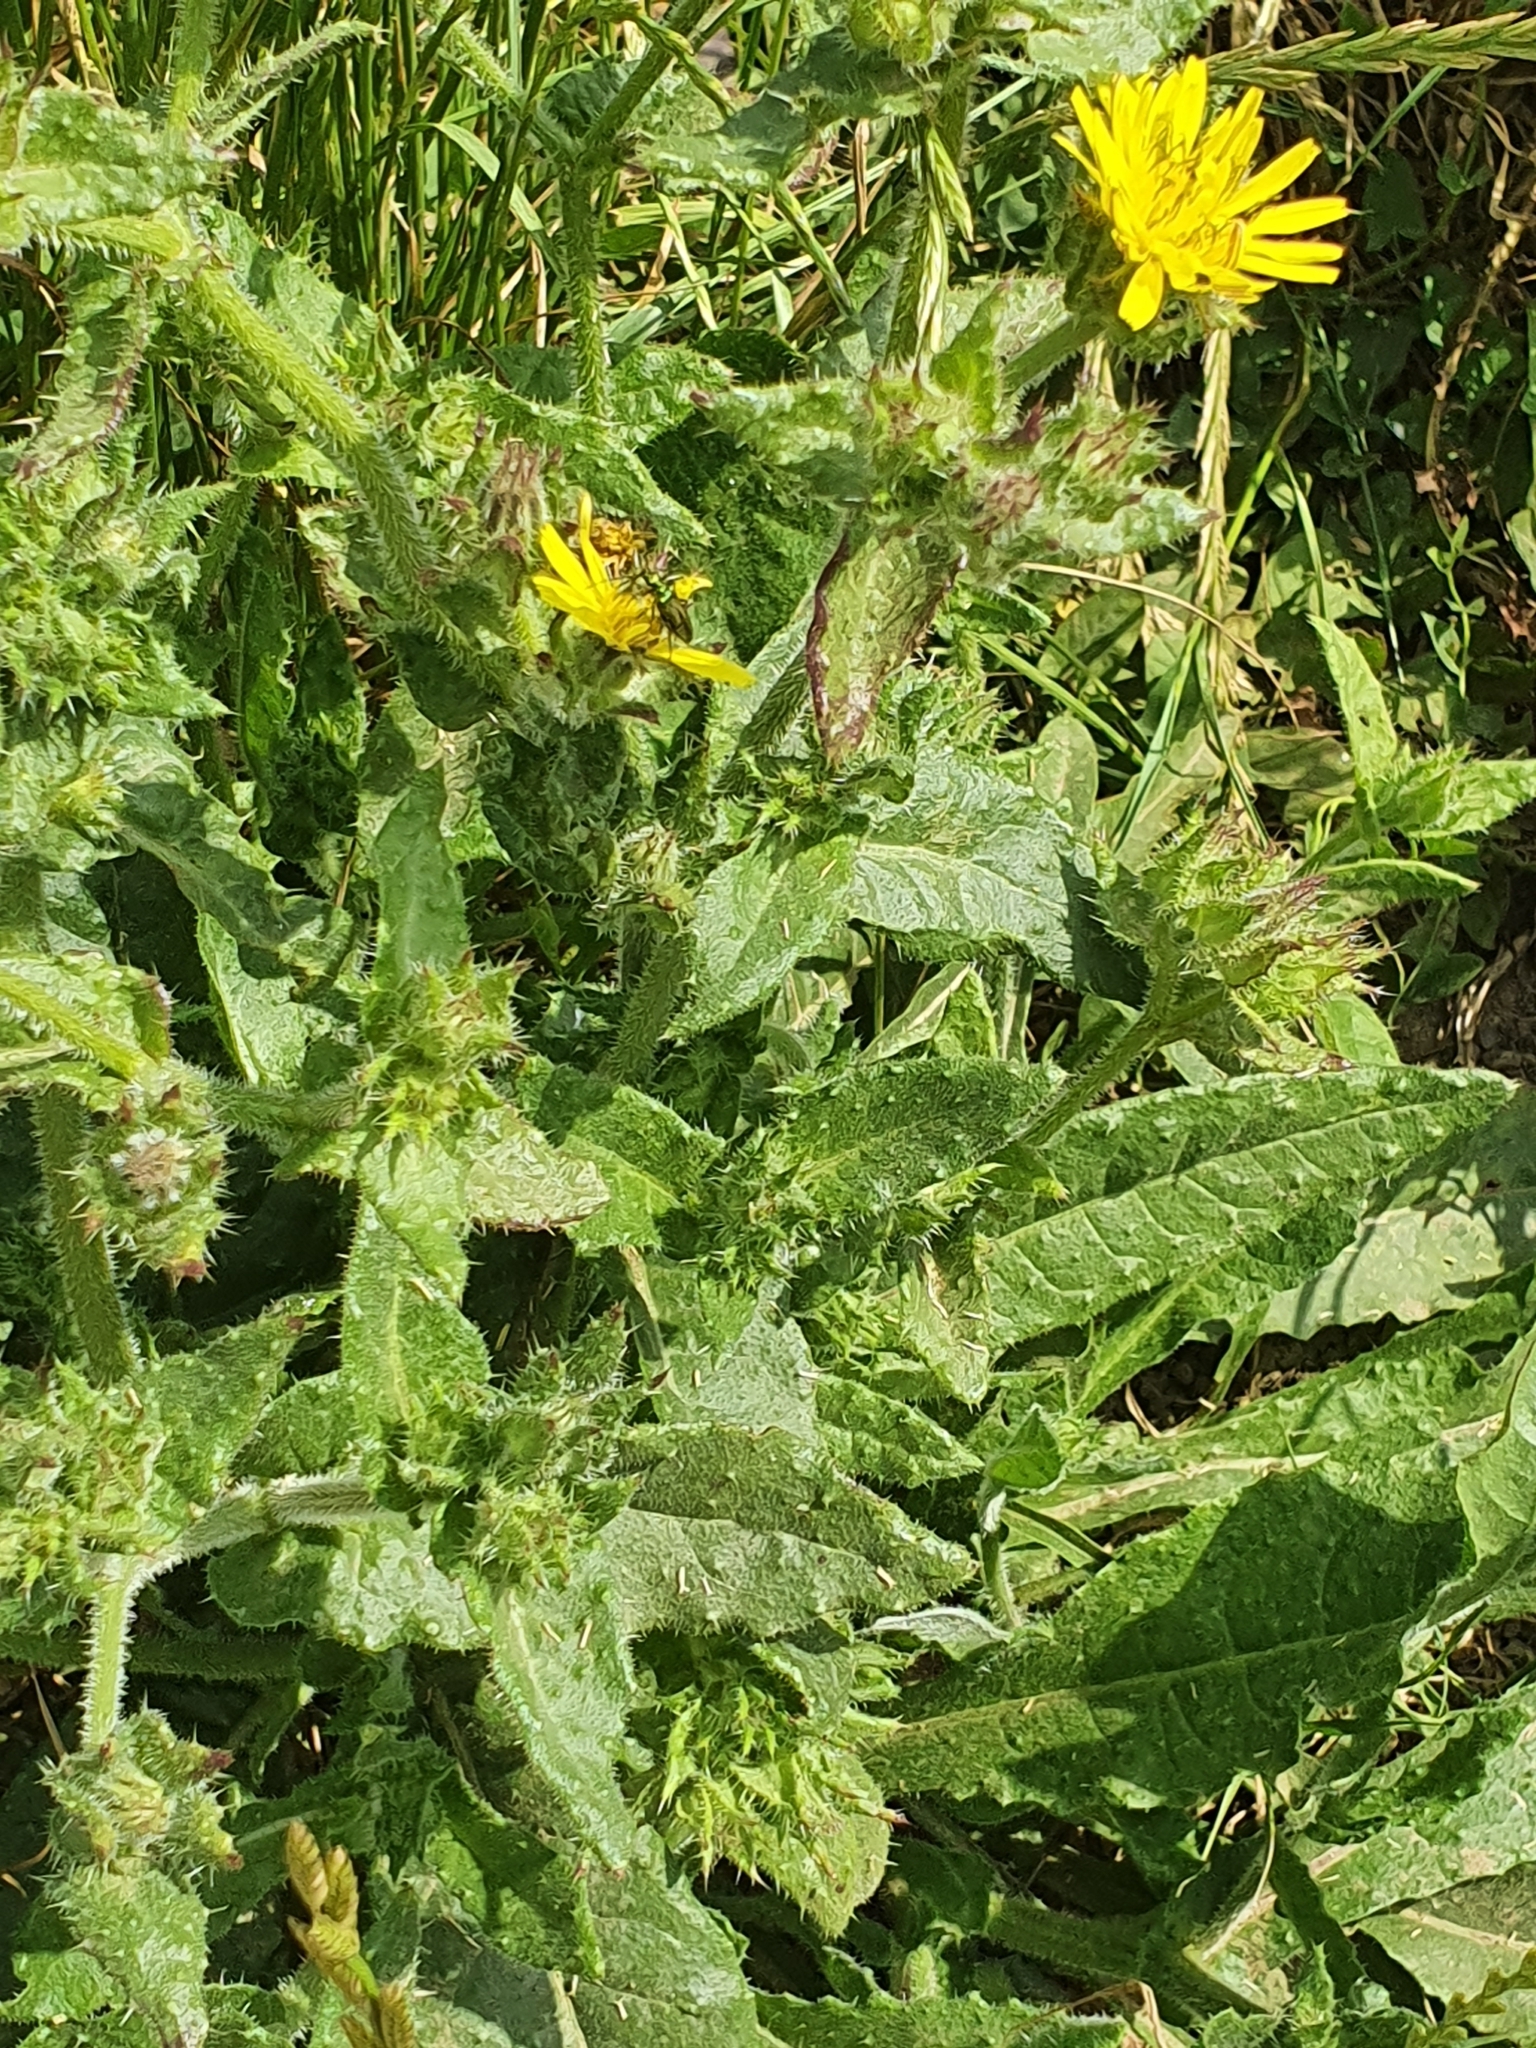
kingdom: Plantae
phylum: Tracheophyta
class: Magnoliopsida
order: Asterales
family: Asteraceae
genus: Helminthotheca
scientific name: Helminthotheca echioides
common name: Ox-tongue
